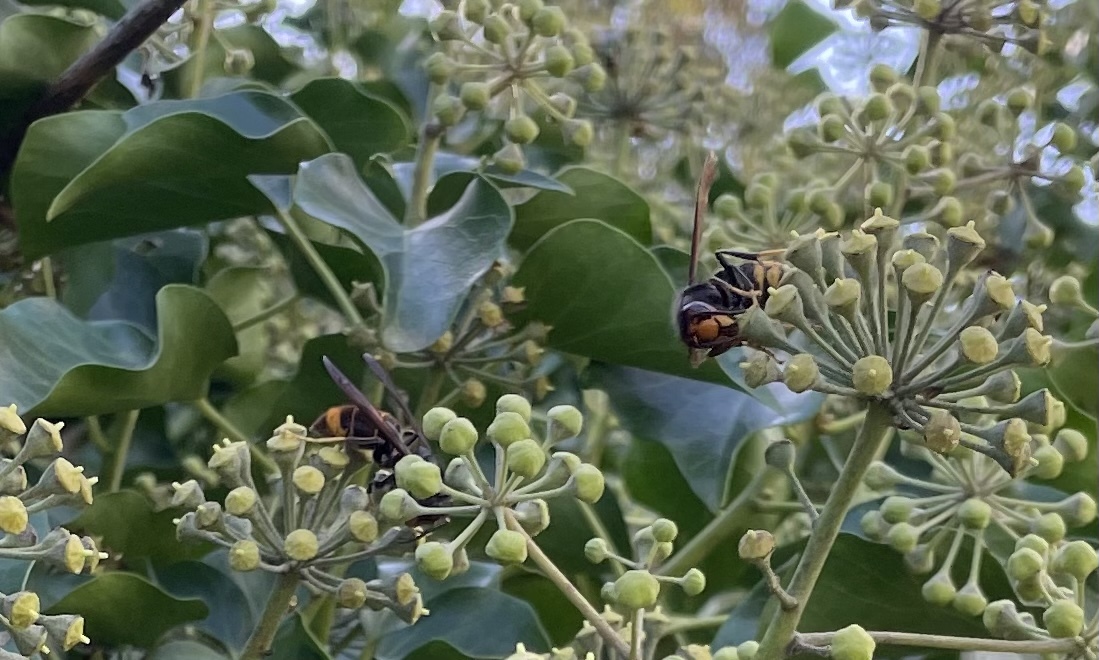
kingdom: Animalia
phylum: Arthropoda
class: Insecta
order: Hymenoptera
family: Vespidae
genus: Vespa
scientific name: Vespa velutina
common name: Asian hornet
